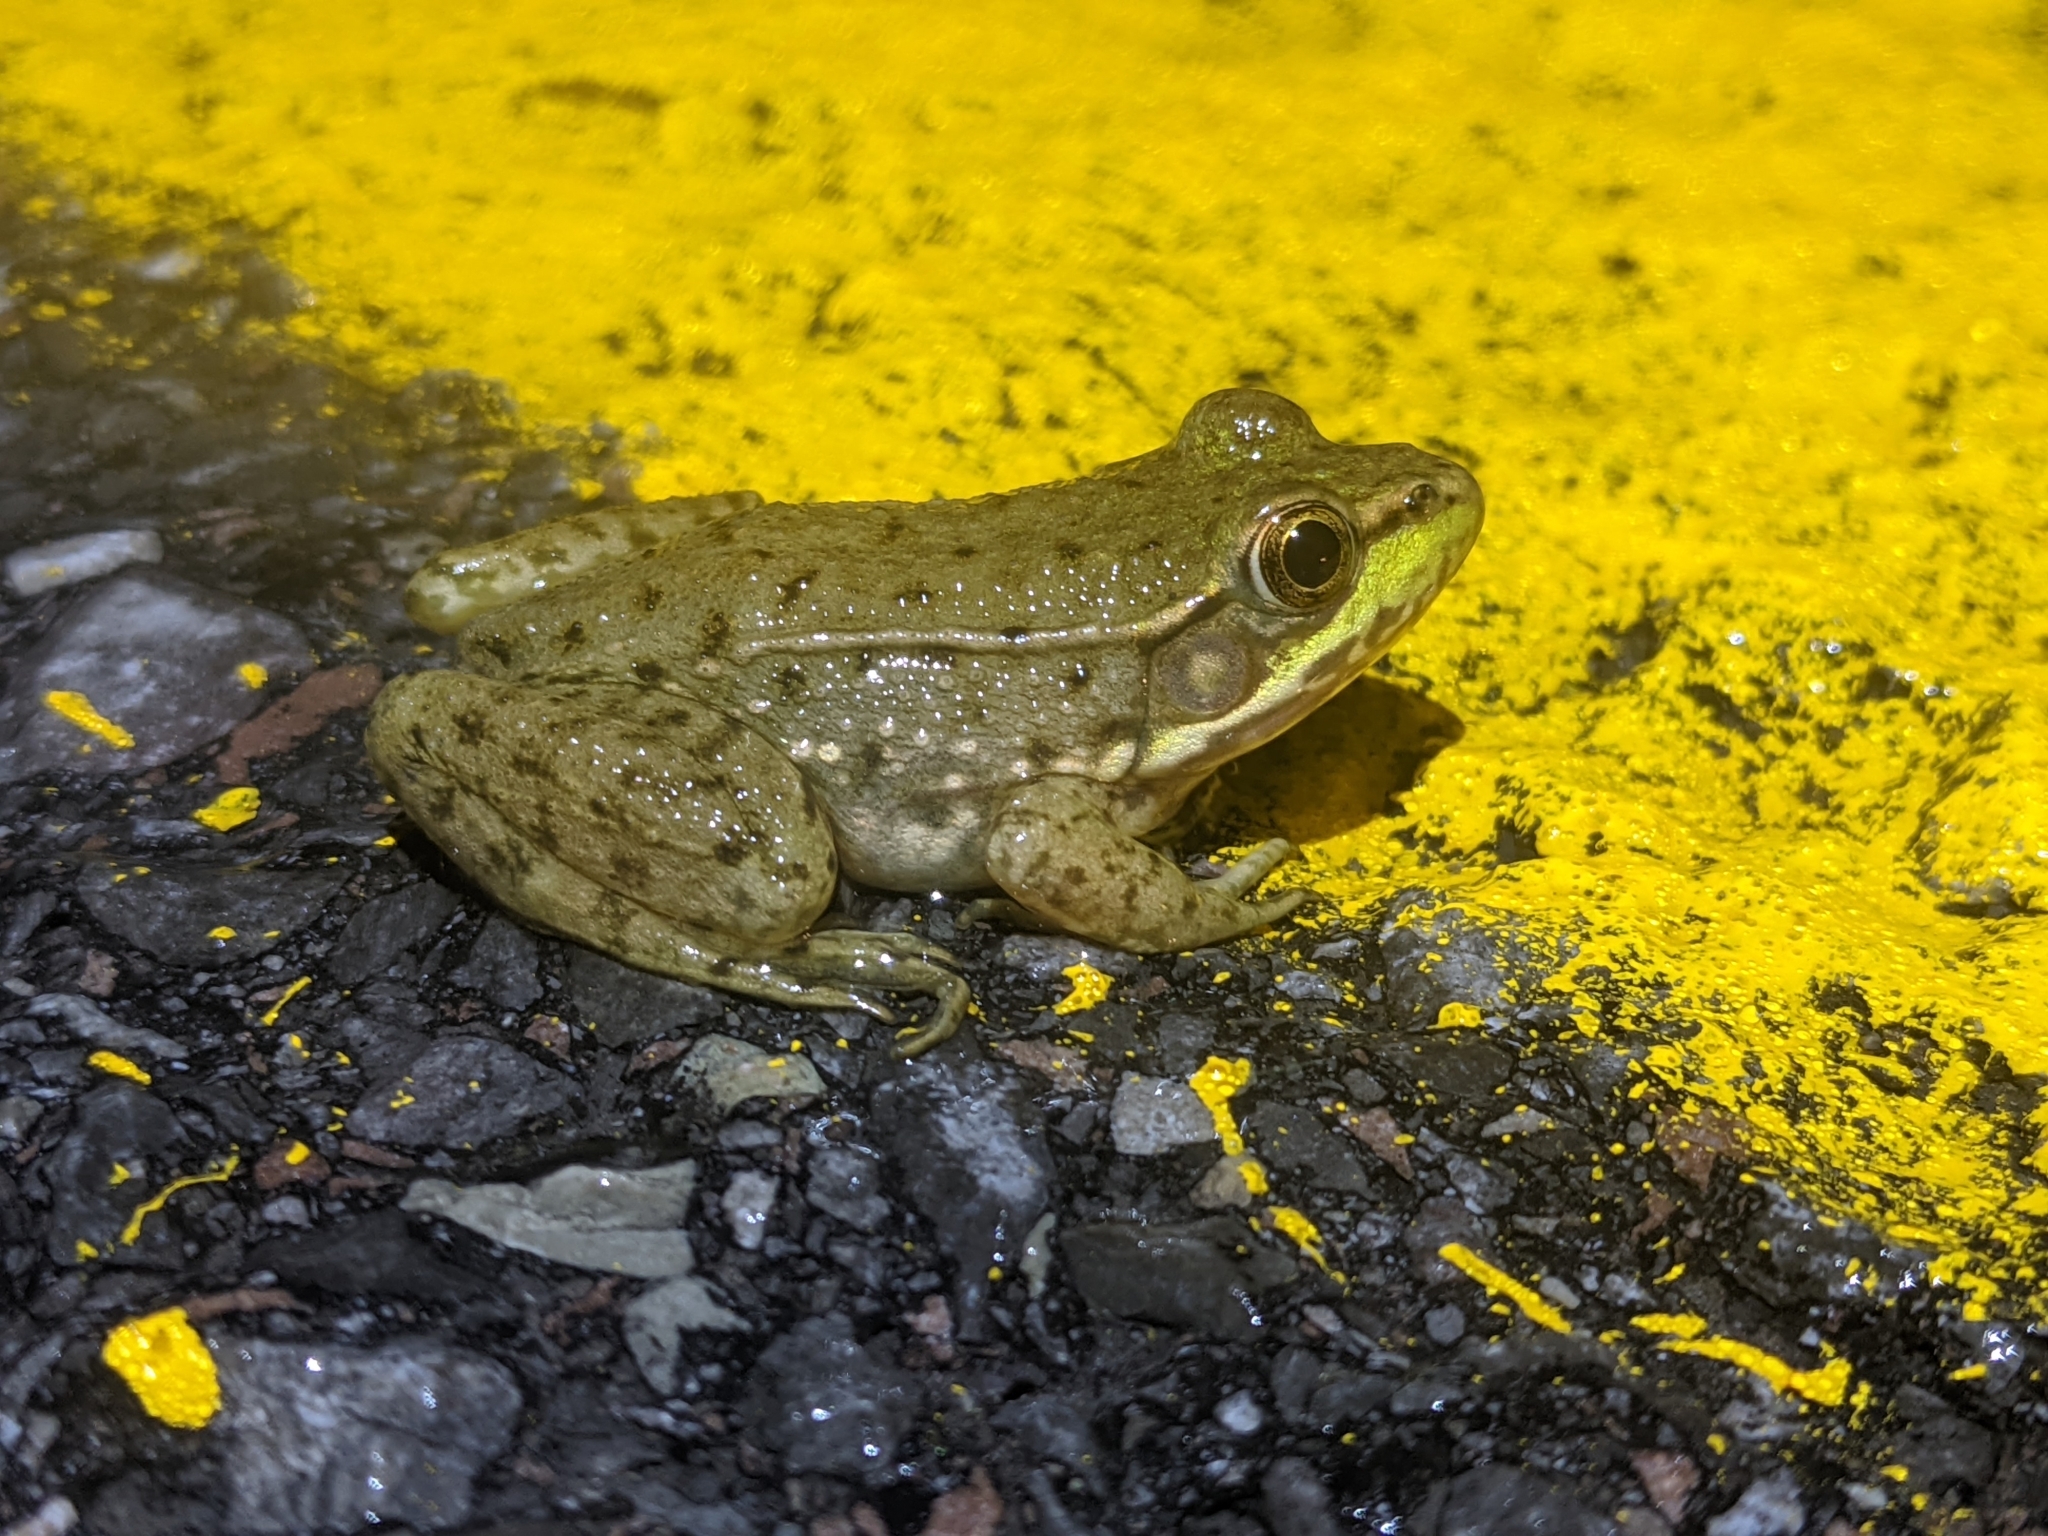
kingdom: Animalia
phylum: Chordata
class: Amphibia
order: Anura
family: Ranidae
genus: Lithobates
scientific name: Lithobates clamitans
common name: Green frog
